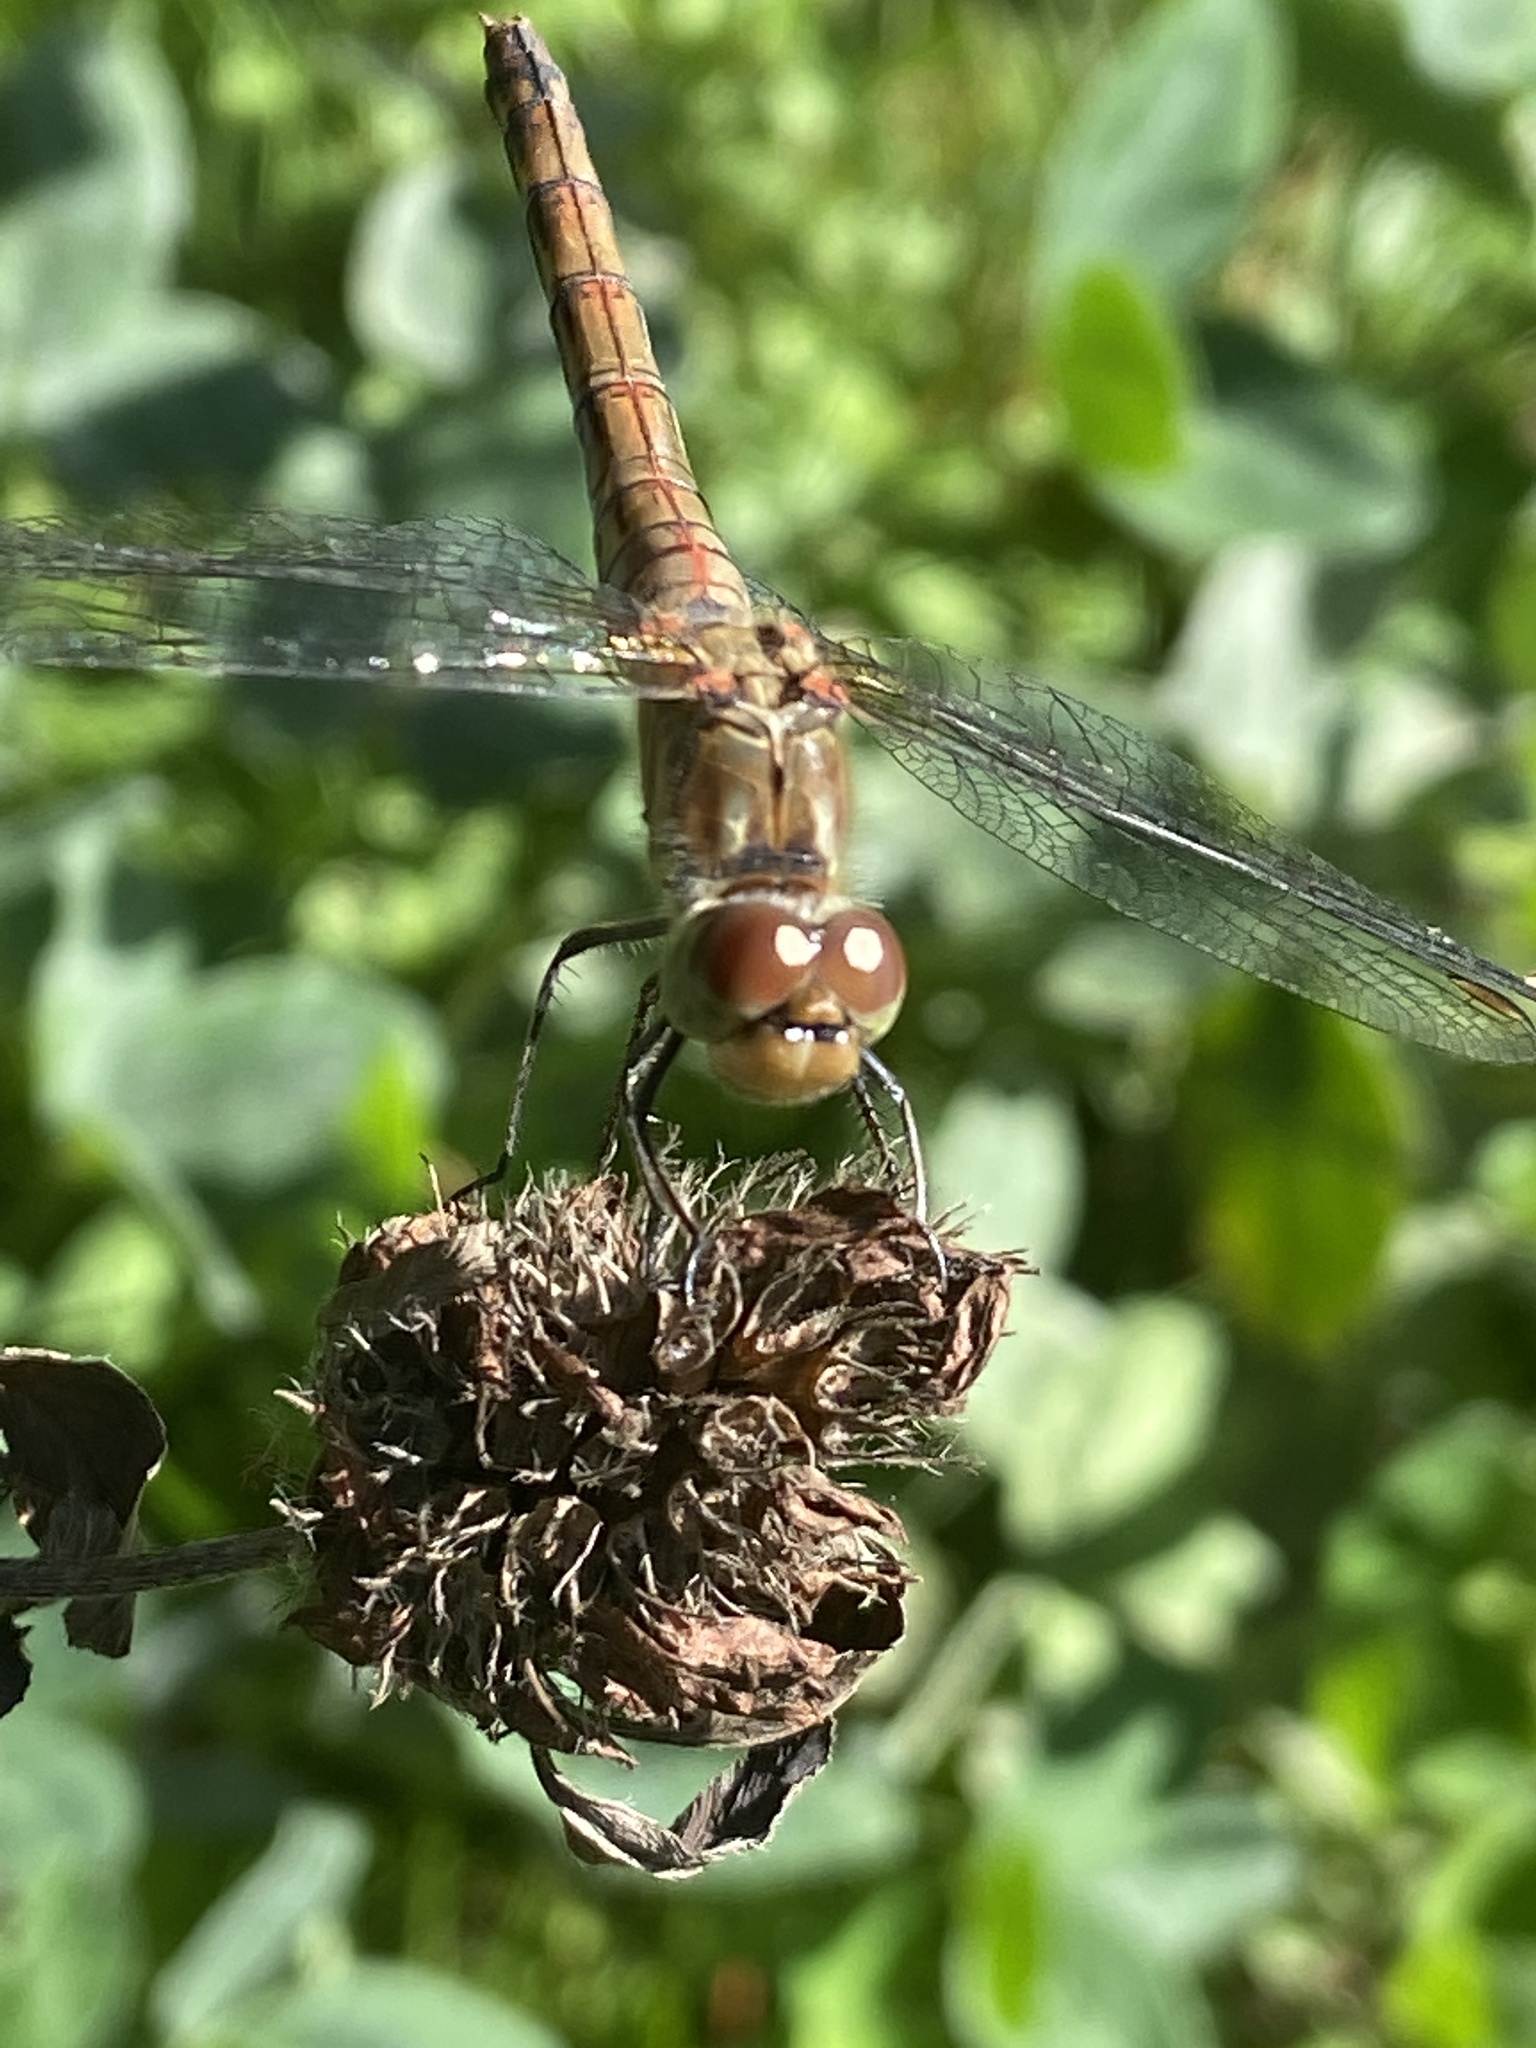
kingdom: Animalia
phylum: Arthropoda
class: Insecta
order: Odonata
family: Libellulidae
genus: Sympetrum
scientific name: Sympetrum striolatum
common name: Common darter
